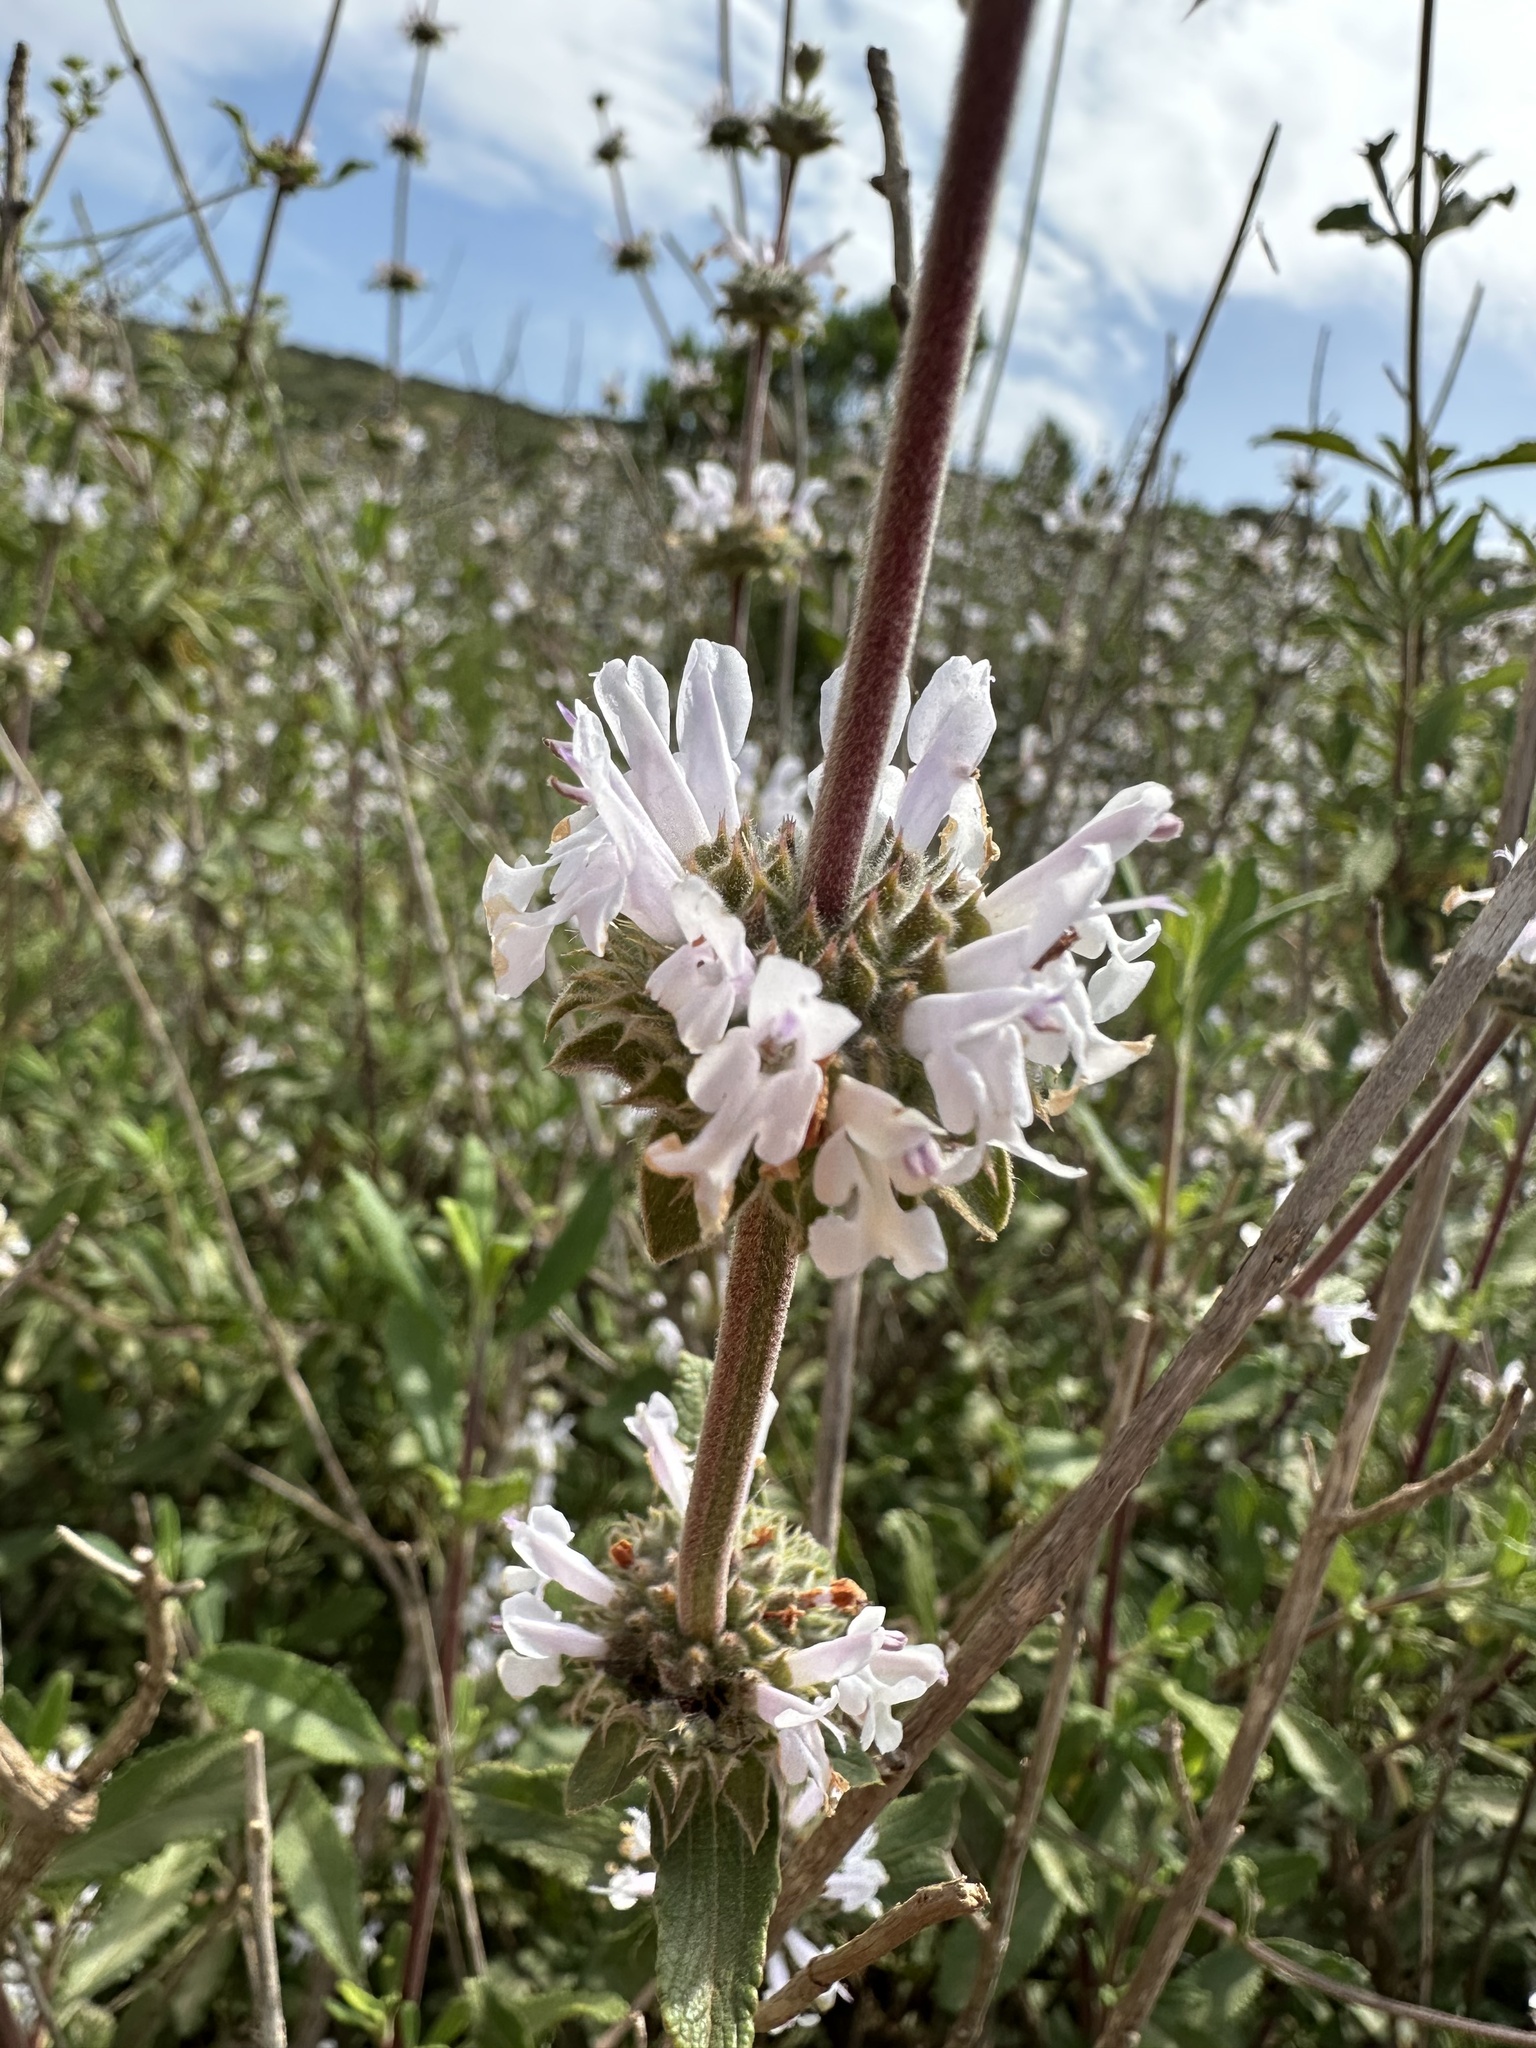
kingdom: Plantae
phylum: Tracheophyta
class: Magnoliopsida
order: Lamiales
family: Lamiaceae
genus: Salvia
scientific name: Salvia mellifera
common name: Black sage
